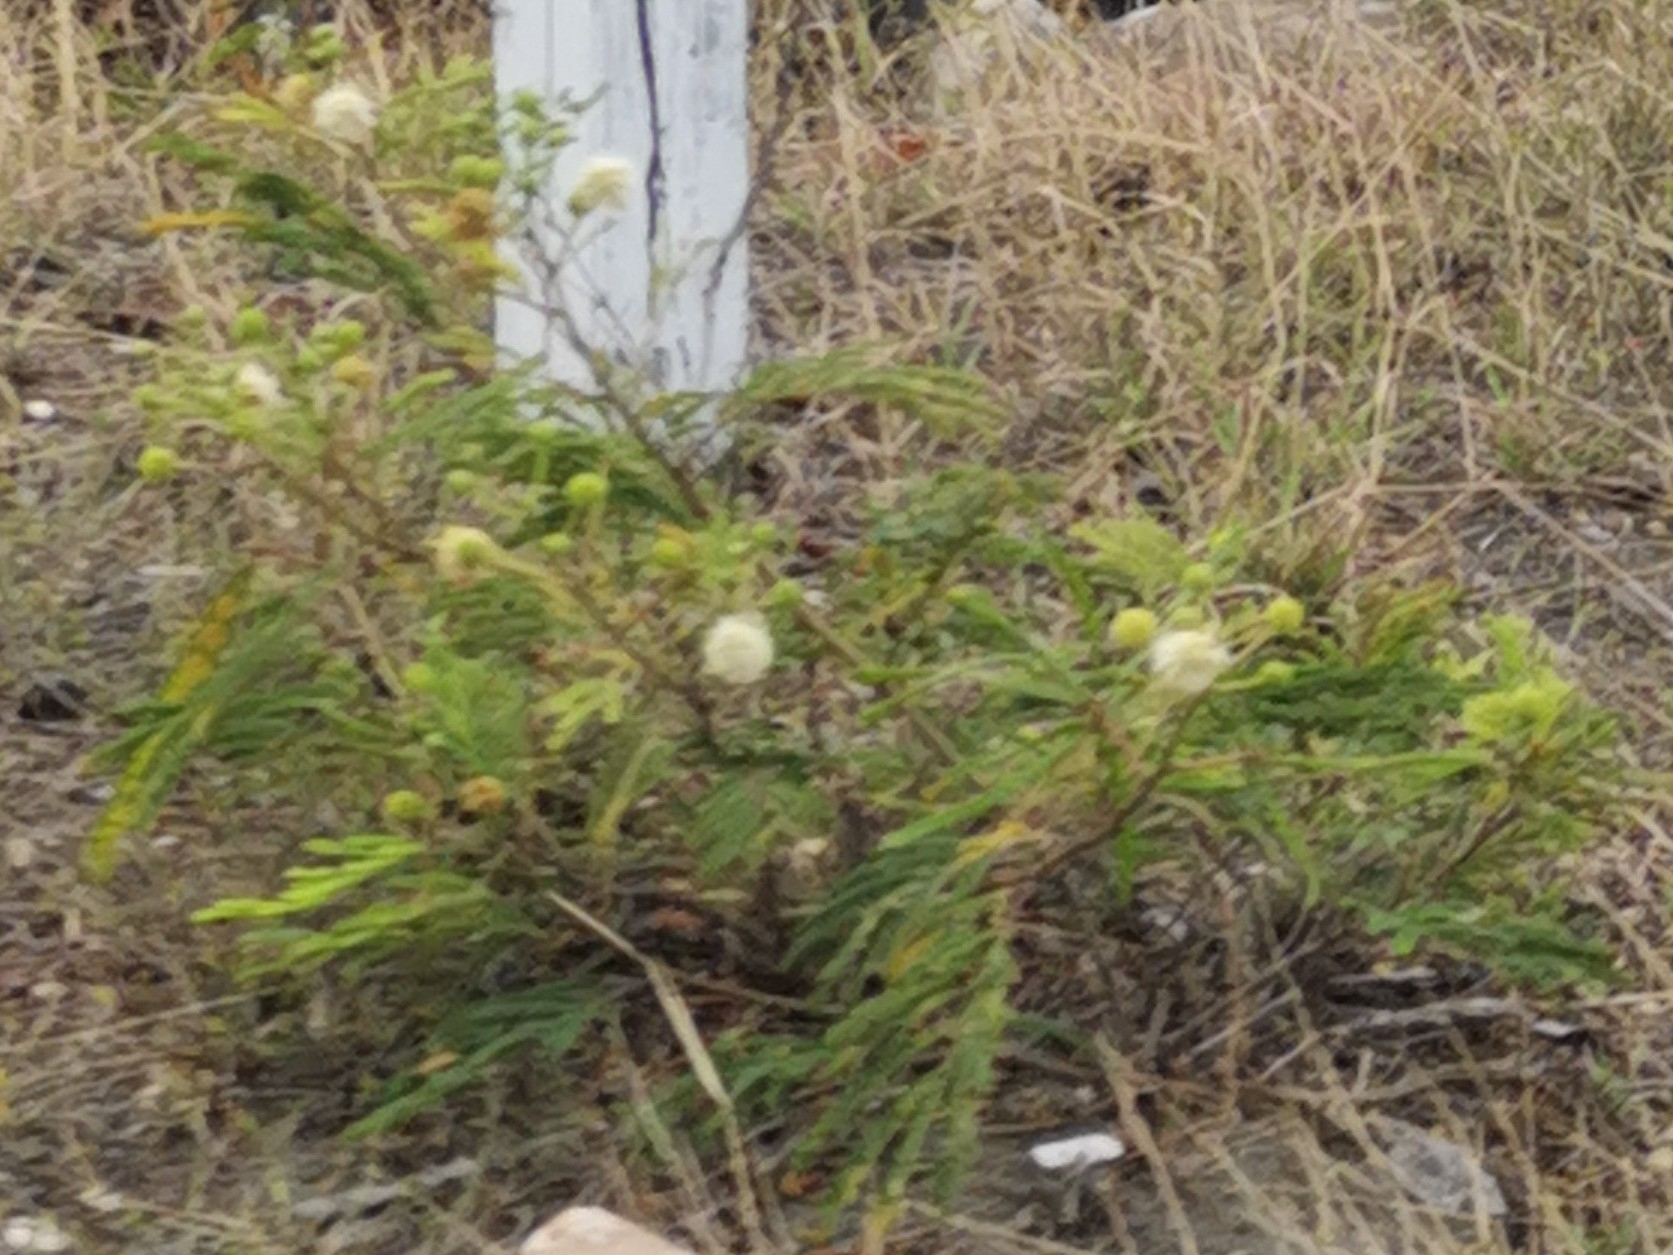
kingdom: Plantae
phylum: Tracheophyta
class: Magnoliopsida
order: Fabales
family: Fabaceae
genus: Leucaena
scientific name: Leucaena leucocephala
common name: White leadtree
